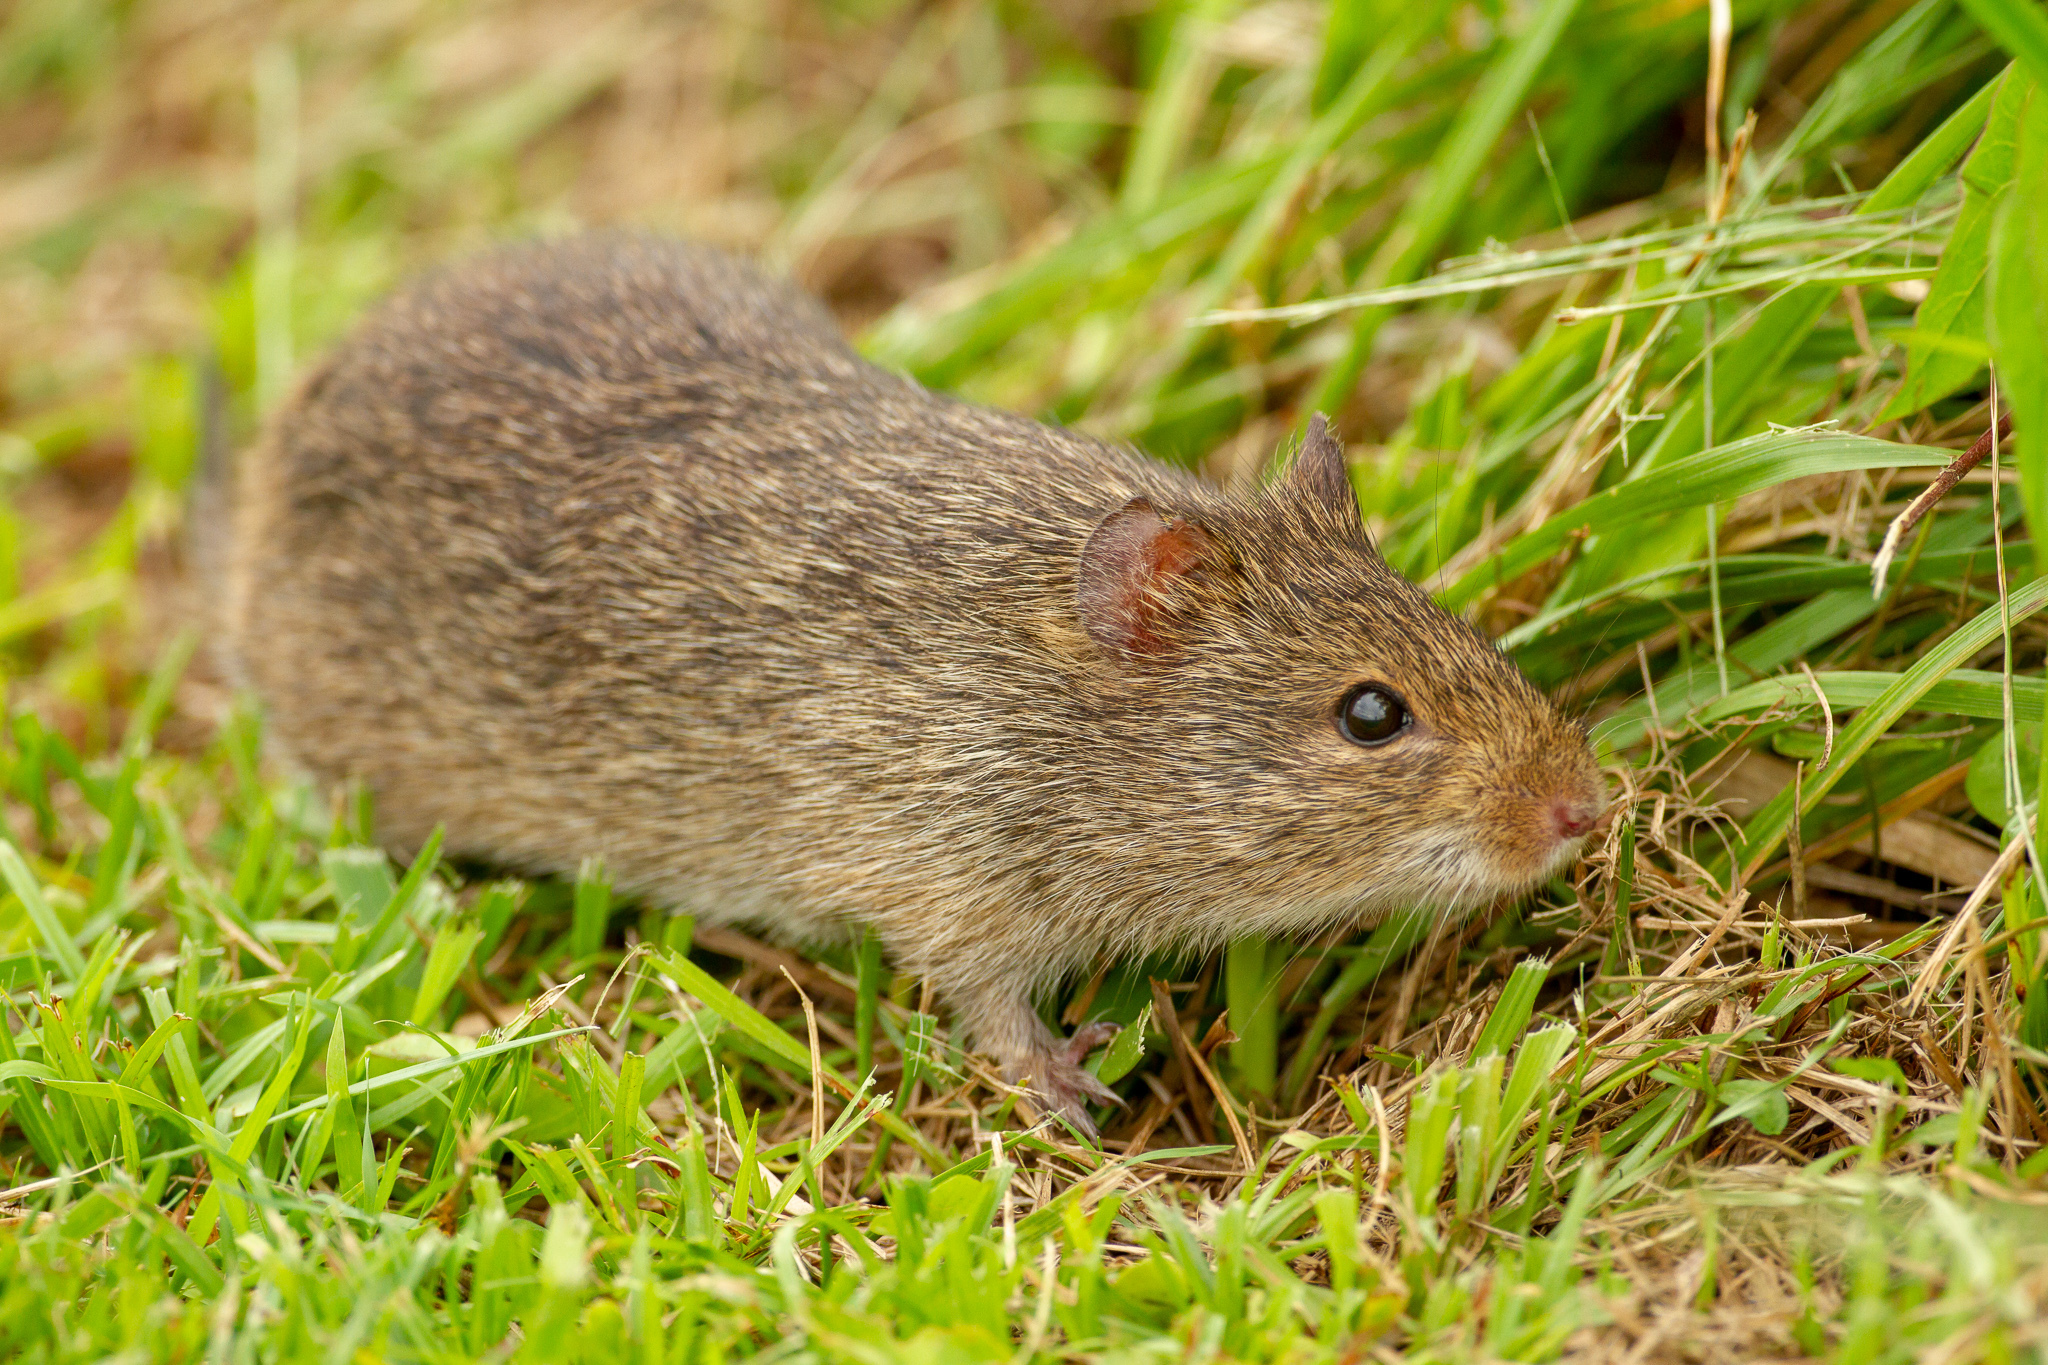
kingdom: Animalia
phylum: Chordata
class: Mammalia
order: Rodentia
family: Cricetidae
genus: Sigmodon
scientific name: Sigmodon hispidus
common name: Hispid cotton rat
